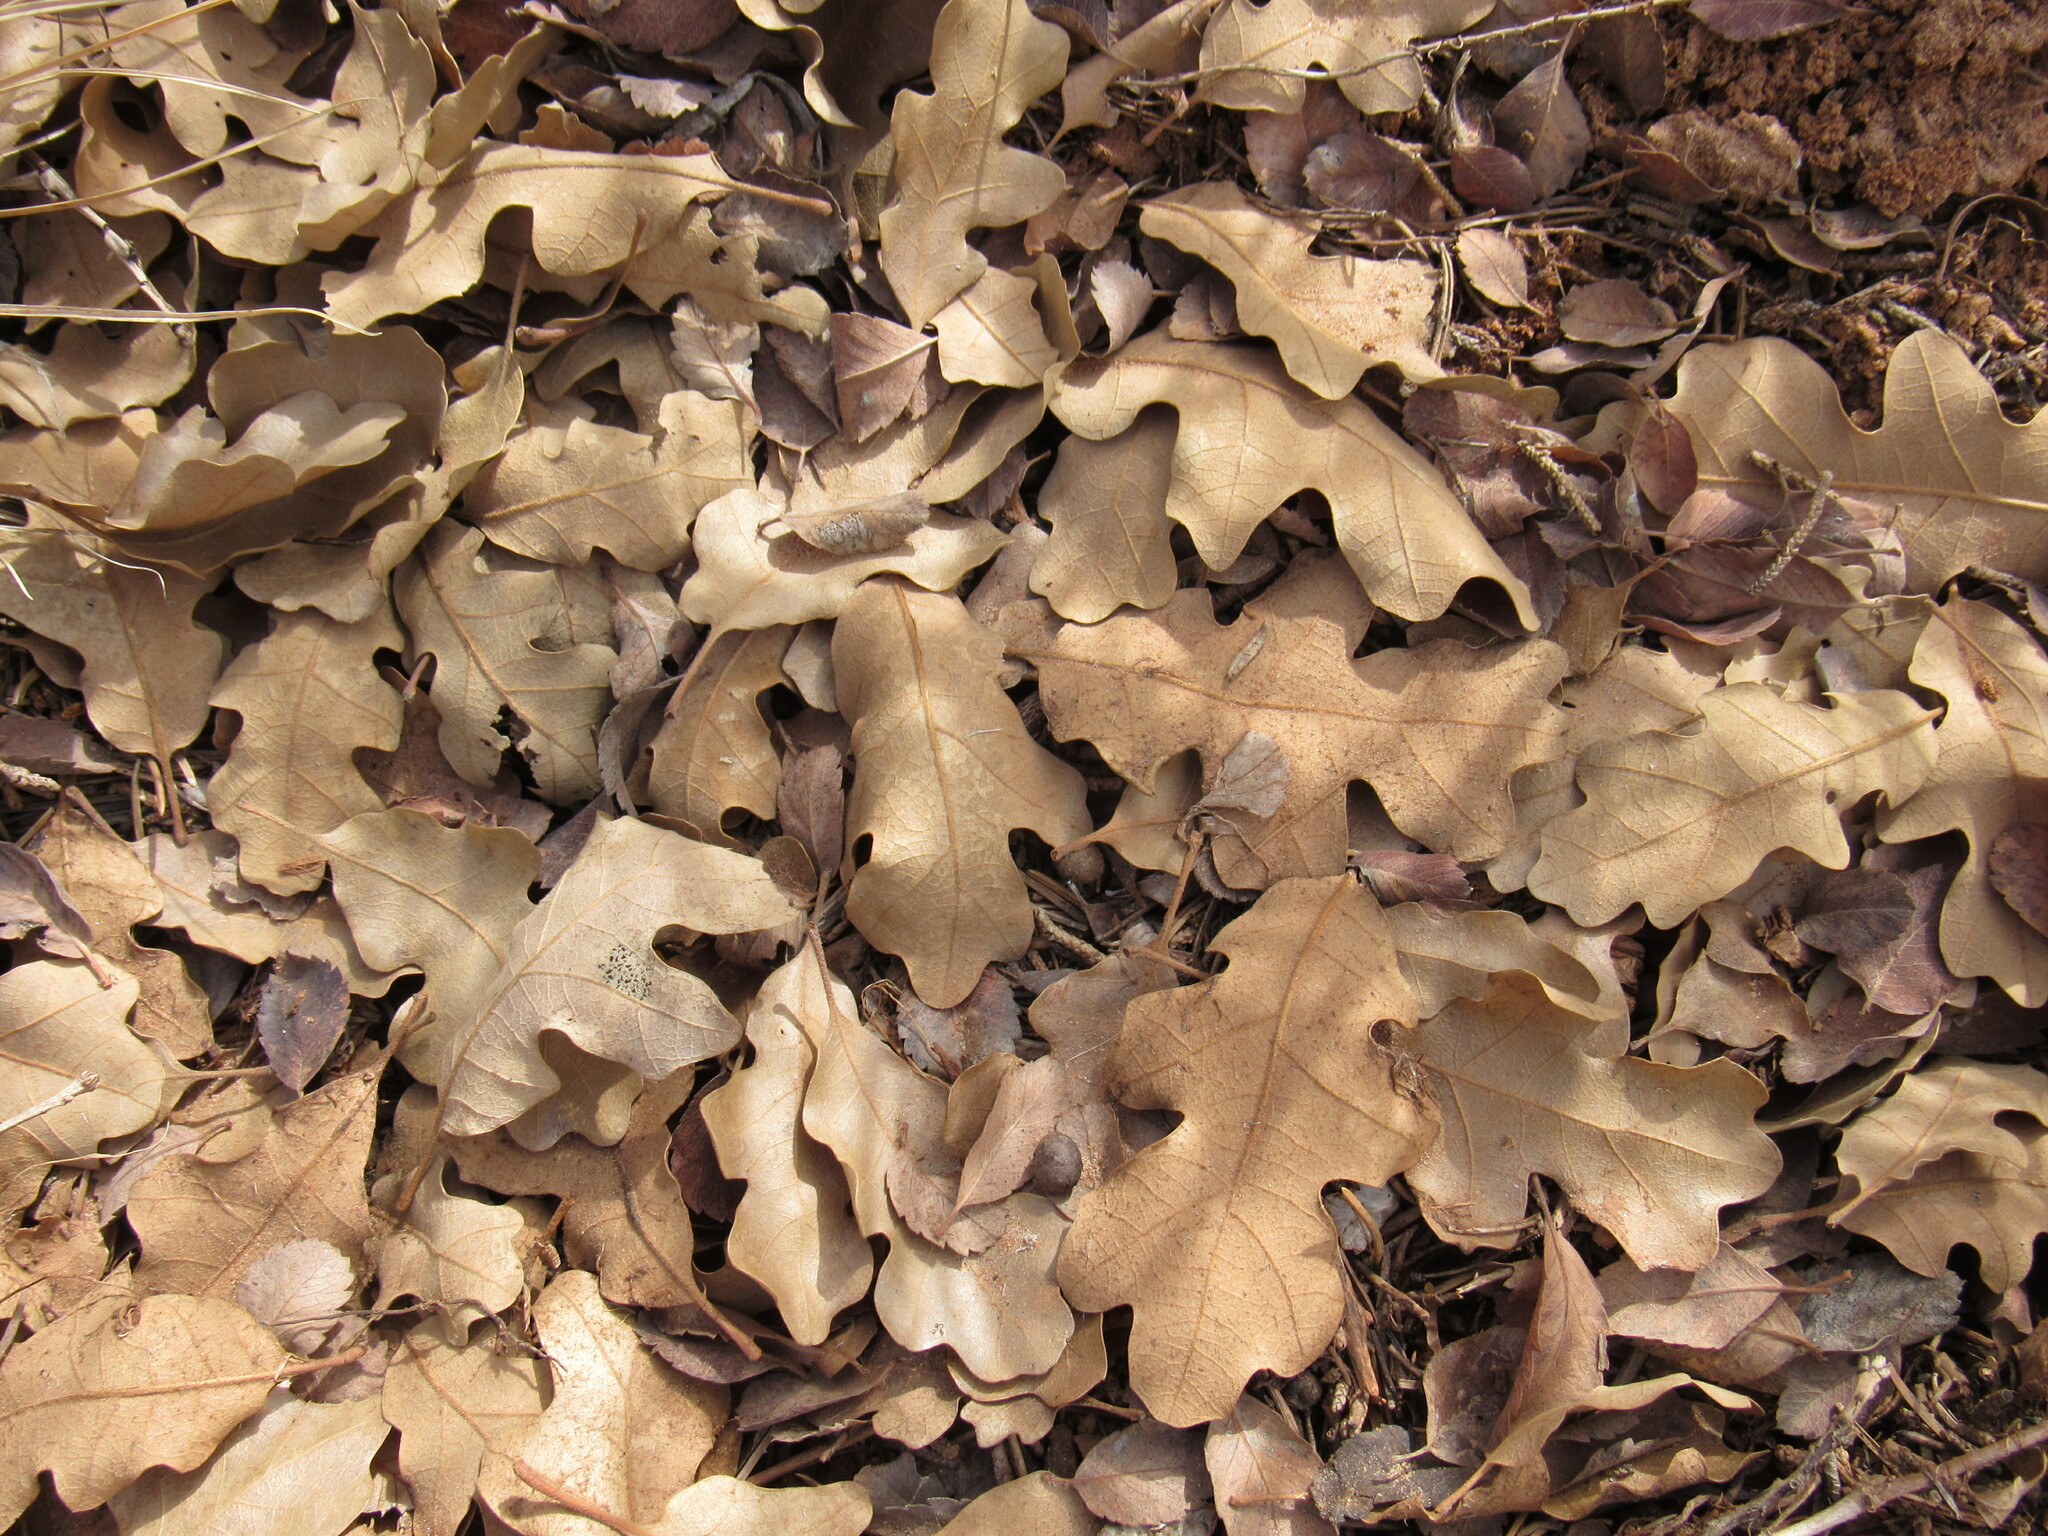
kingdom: Plantae
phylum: Tracheophyta
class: Magnoliopsida
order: Fagales
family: Fagaceae
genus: Quercus
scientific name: Quercus gambelii
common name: Gambel oak
